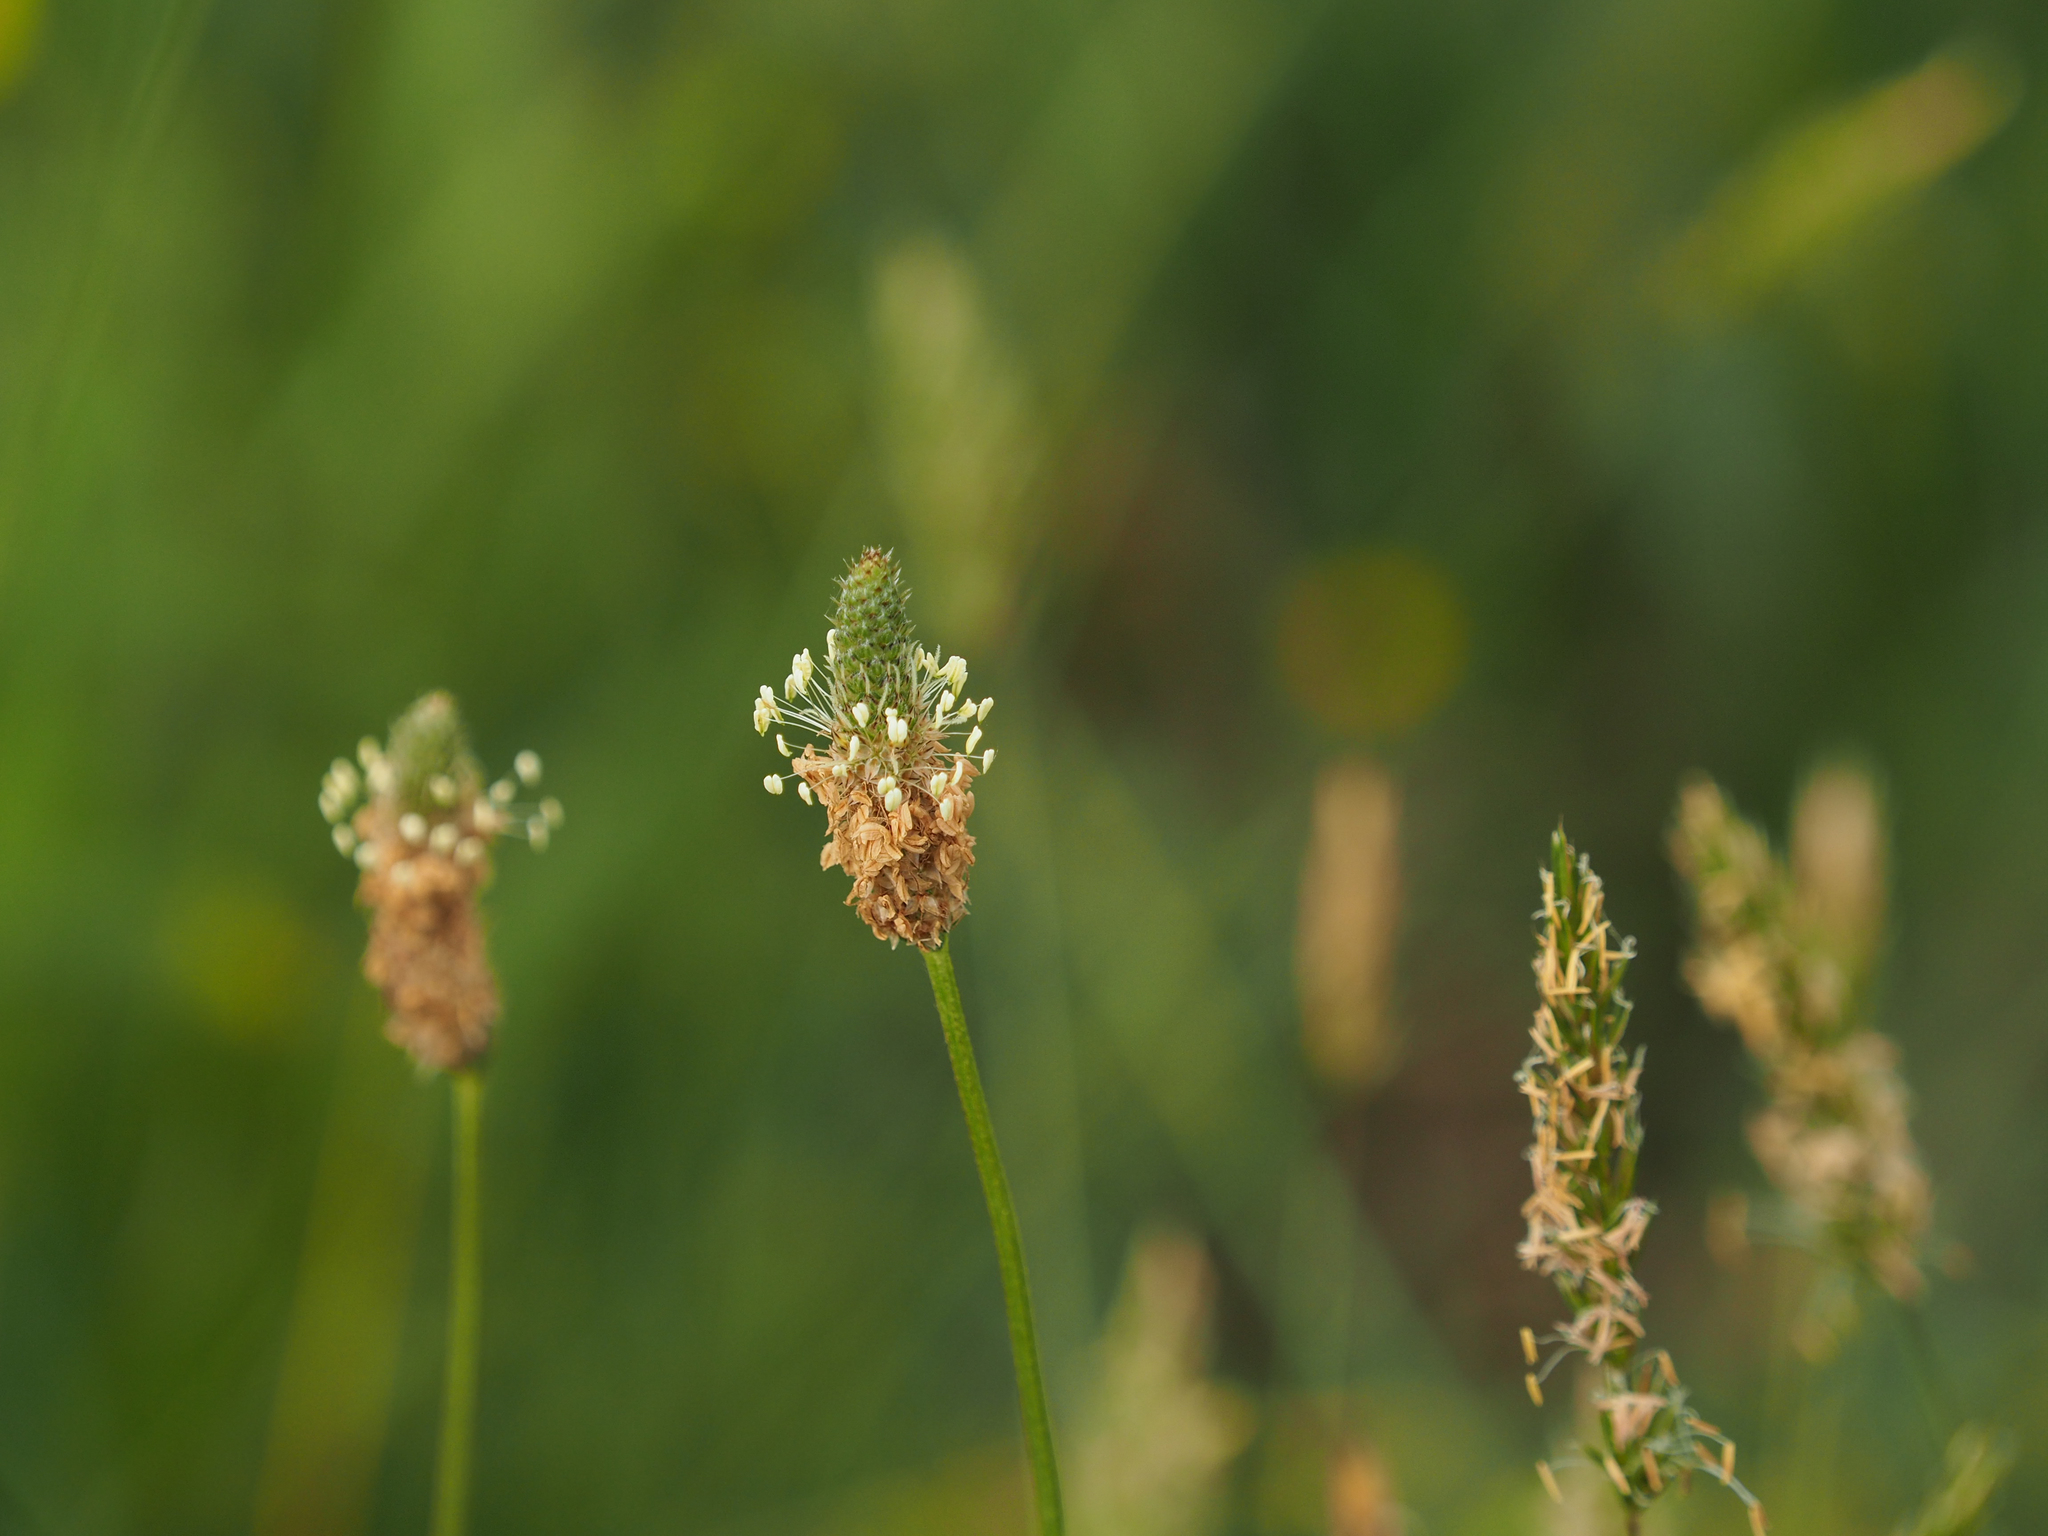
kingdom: Plantae
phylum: Tracheophyta
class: Magnoliopsida
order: Lamiales
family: Plantaginaceae
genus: Plantago
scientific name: Plantago lanceolata
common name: Ribwort plantain
